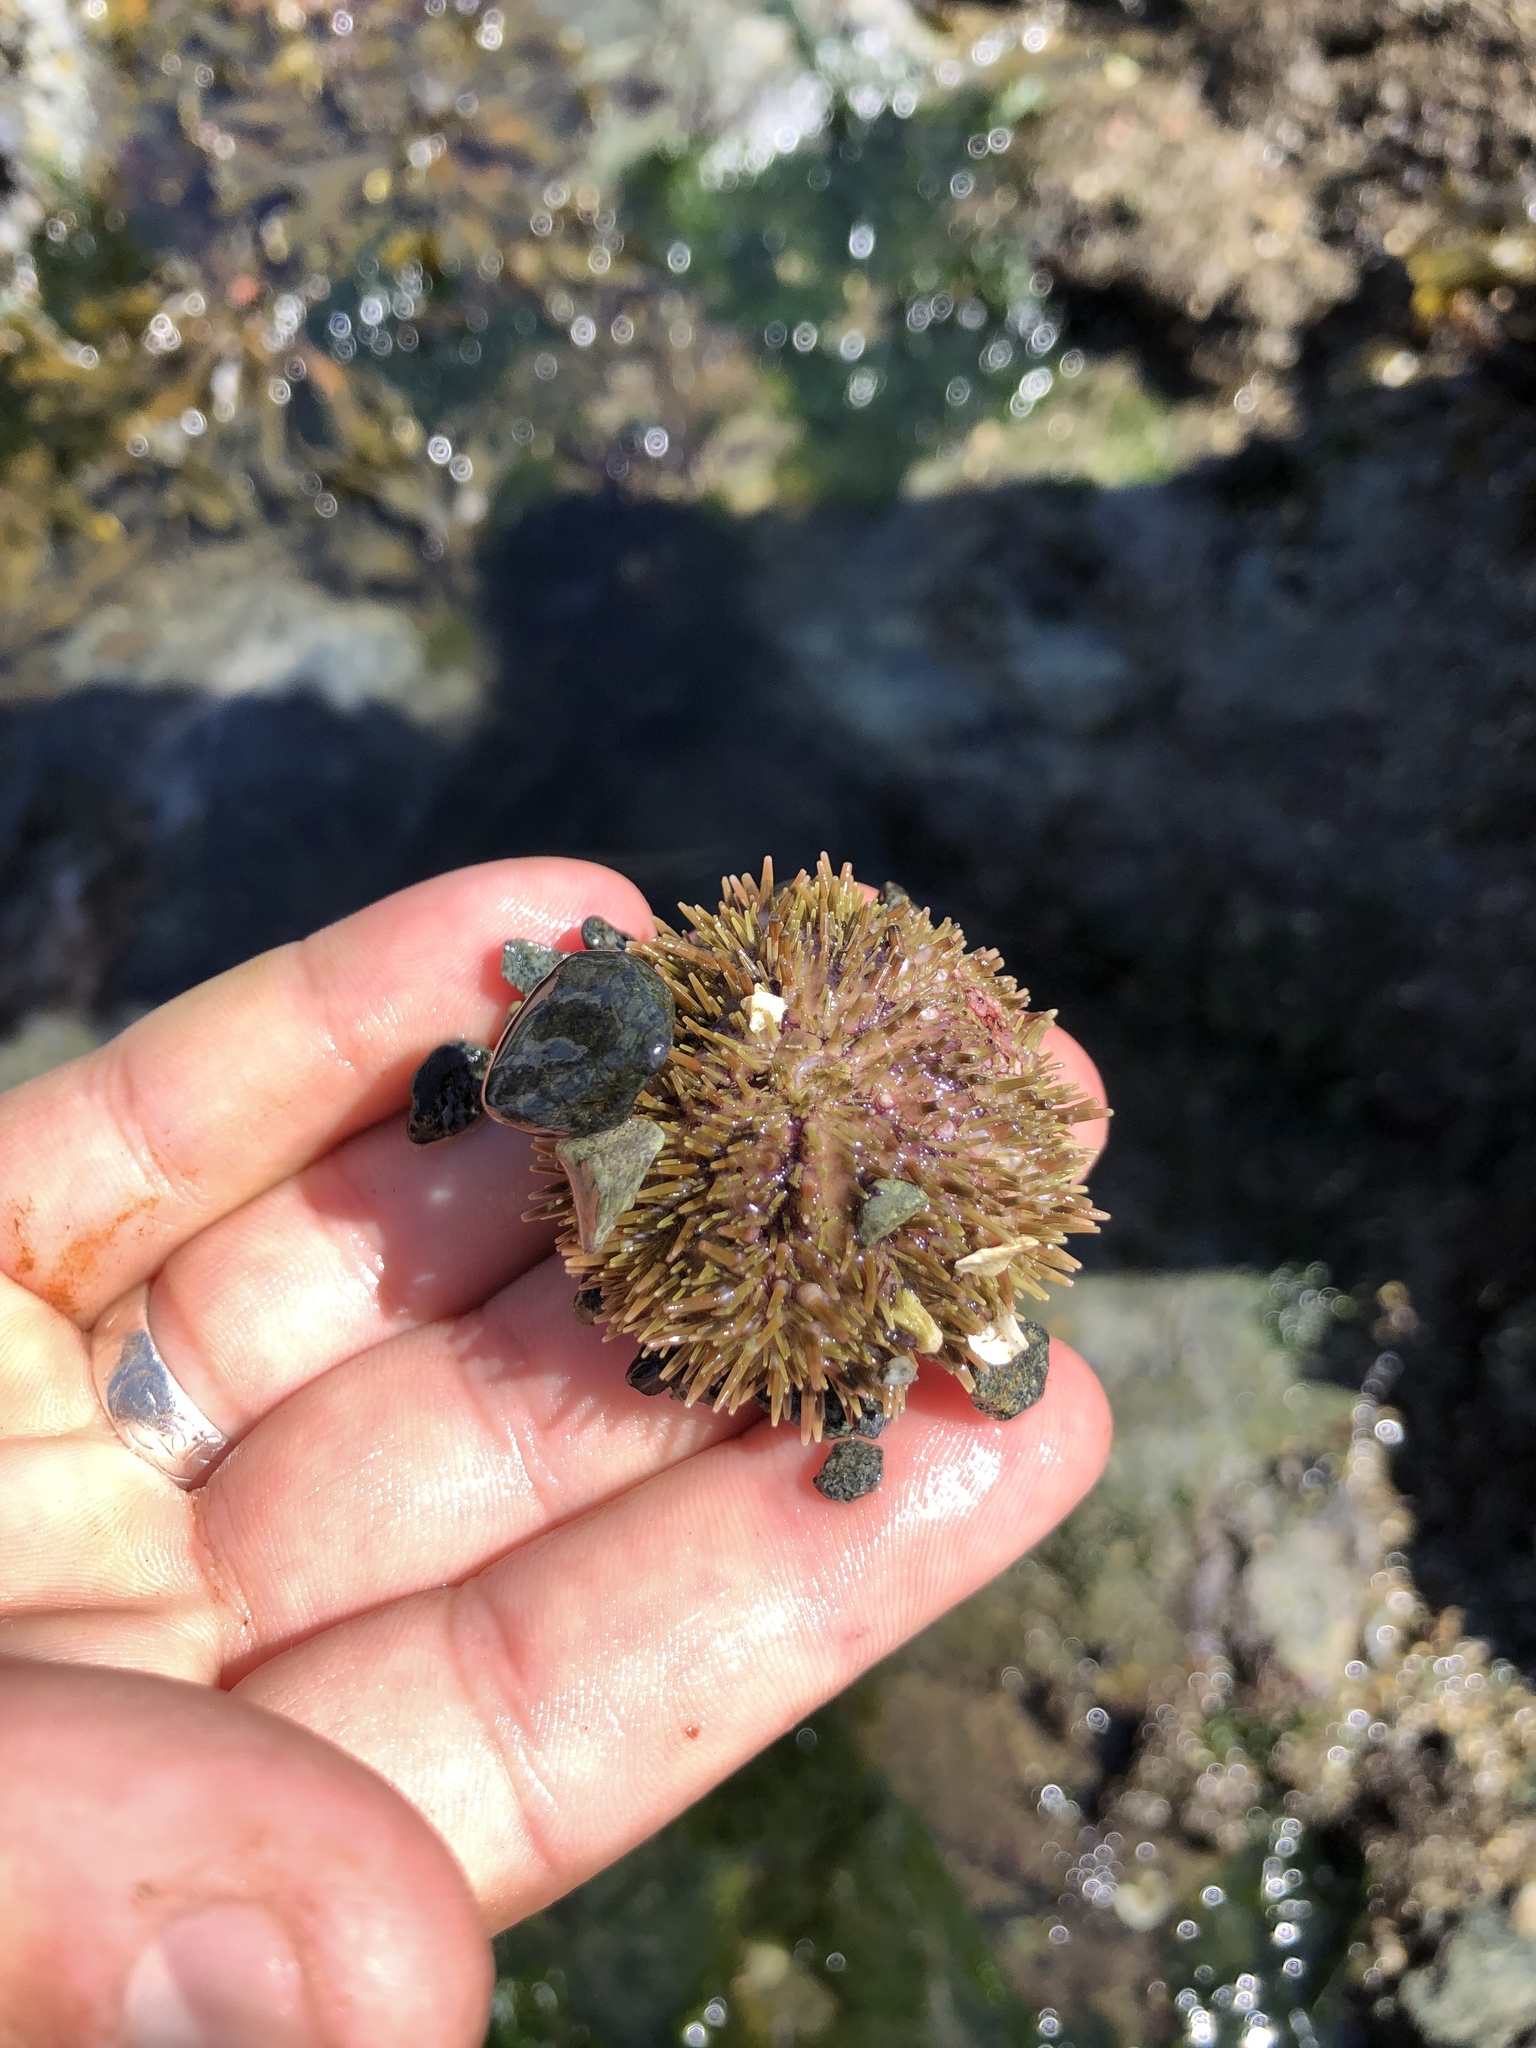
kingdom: Animalia
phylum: Echinodermata
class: Echinoidea
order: Camarodonta
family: Strongylocentrotidae
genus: Strongylocentrotus
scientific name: Strongylocentrotus droebachiensis
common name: Northern sea urchin
